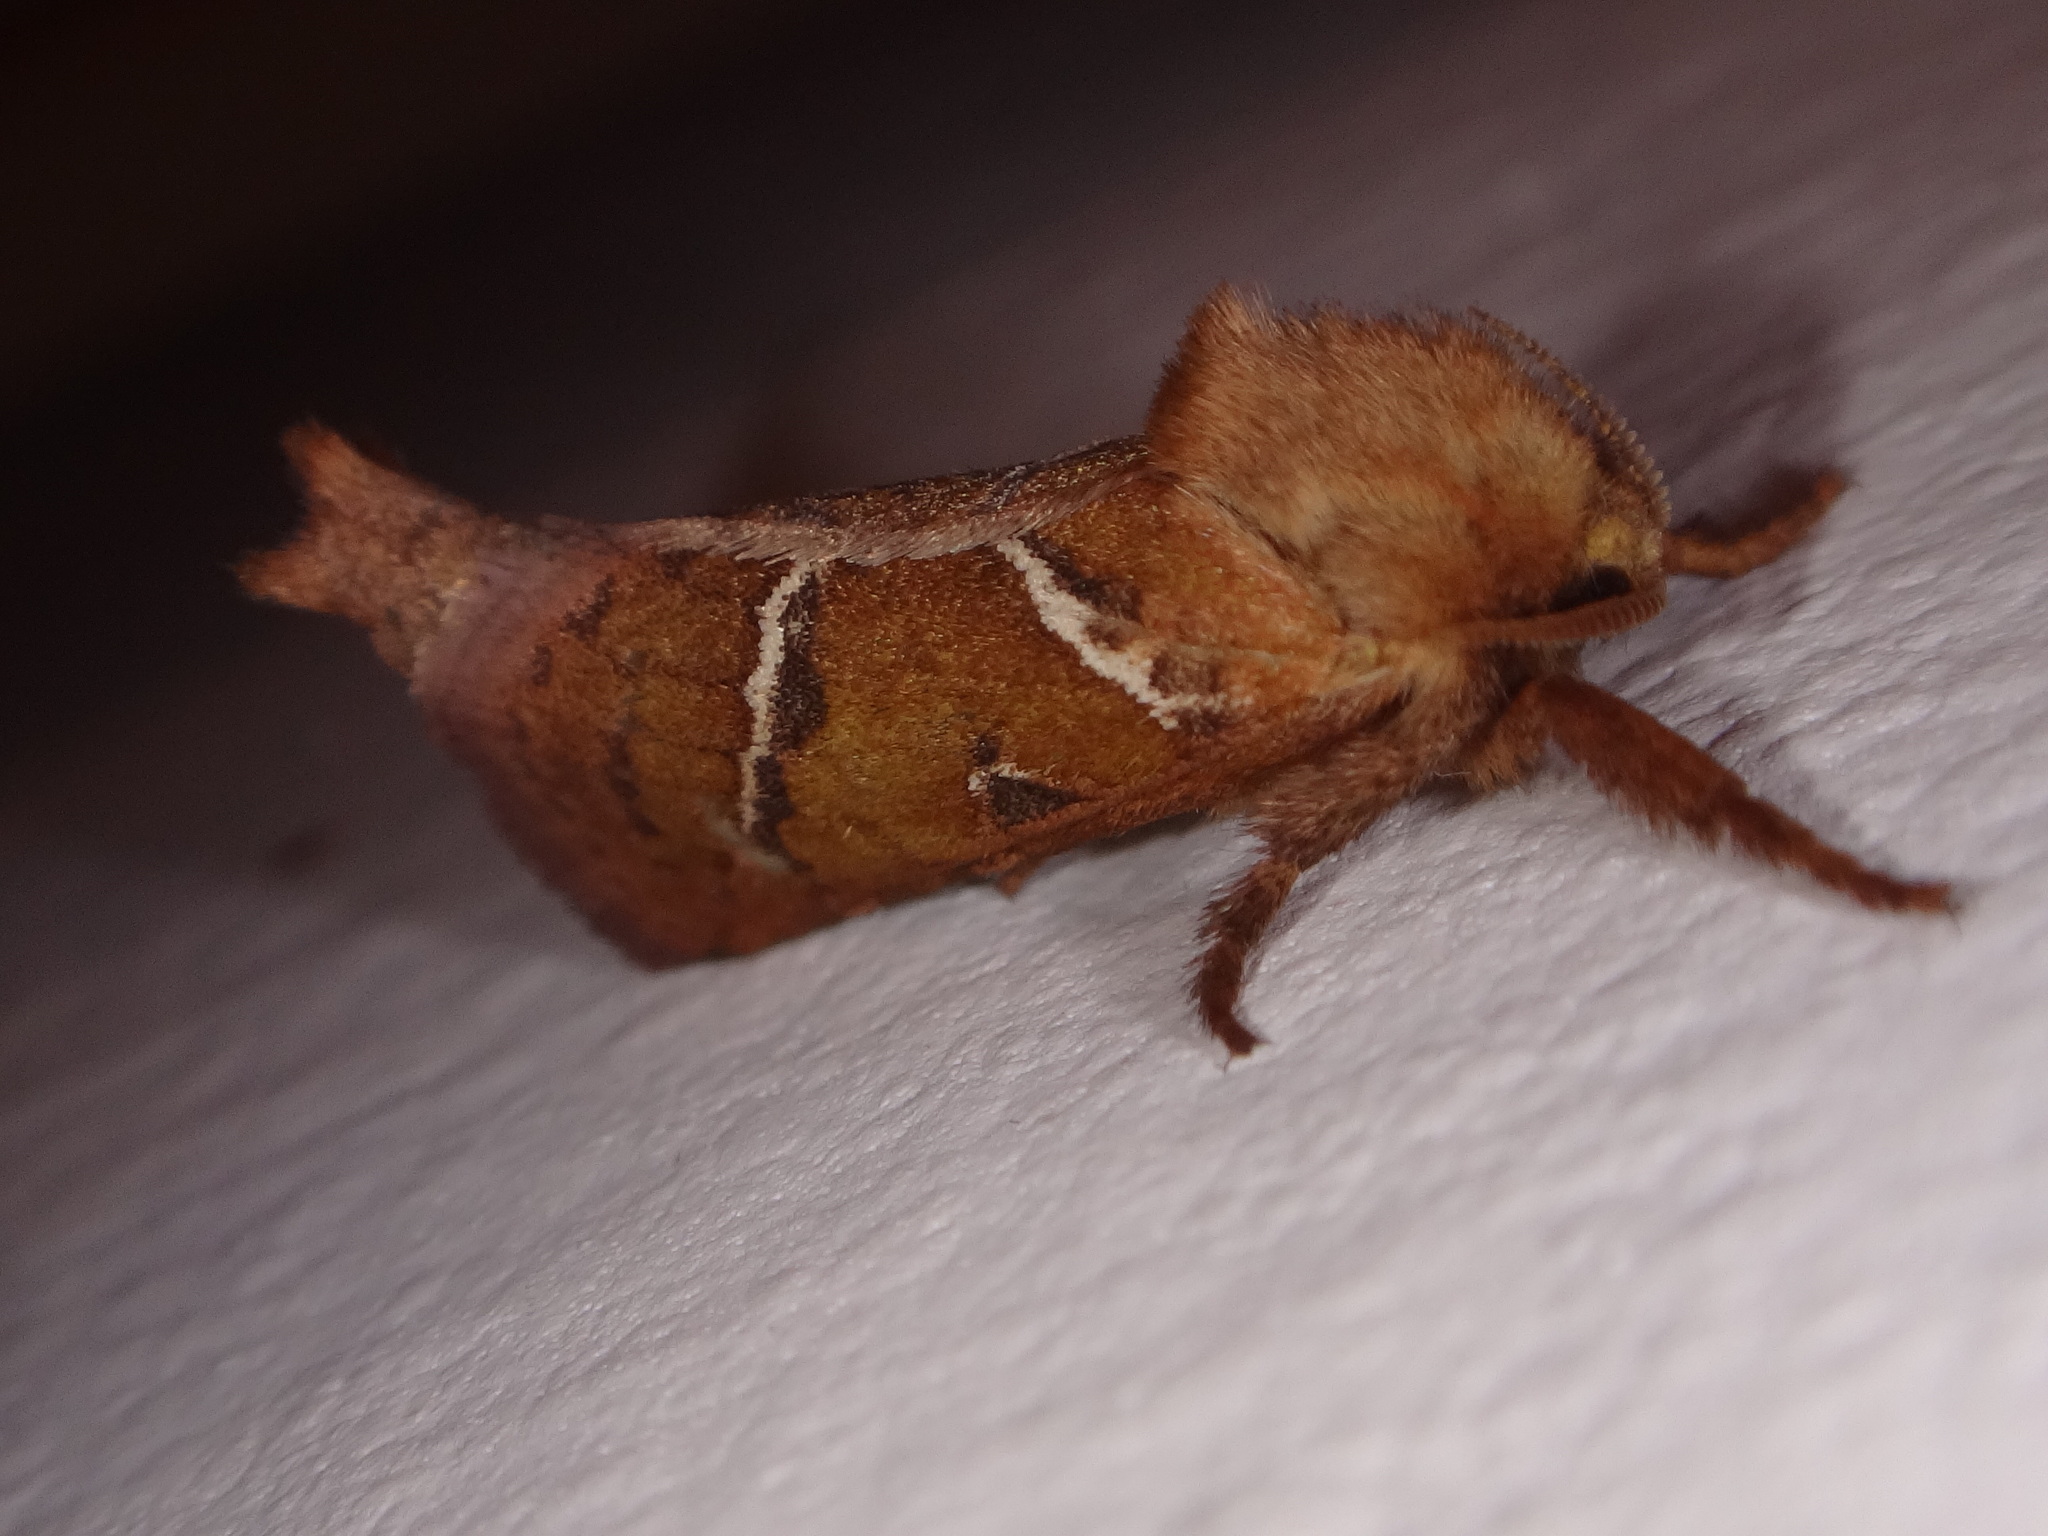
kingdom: Animalia
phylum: Arthropoda
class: Insecta
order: Lepidoptera
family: Hepialidae
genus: Triodia
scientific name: Triodia sylvina
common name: Orange swift
